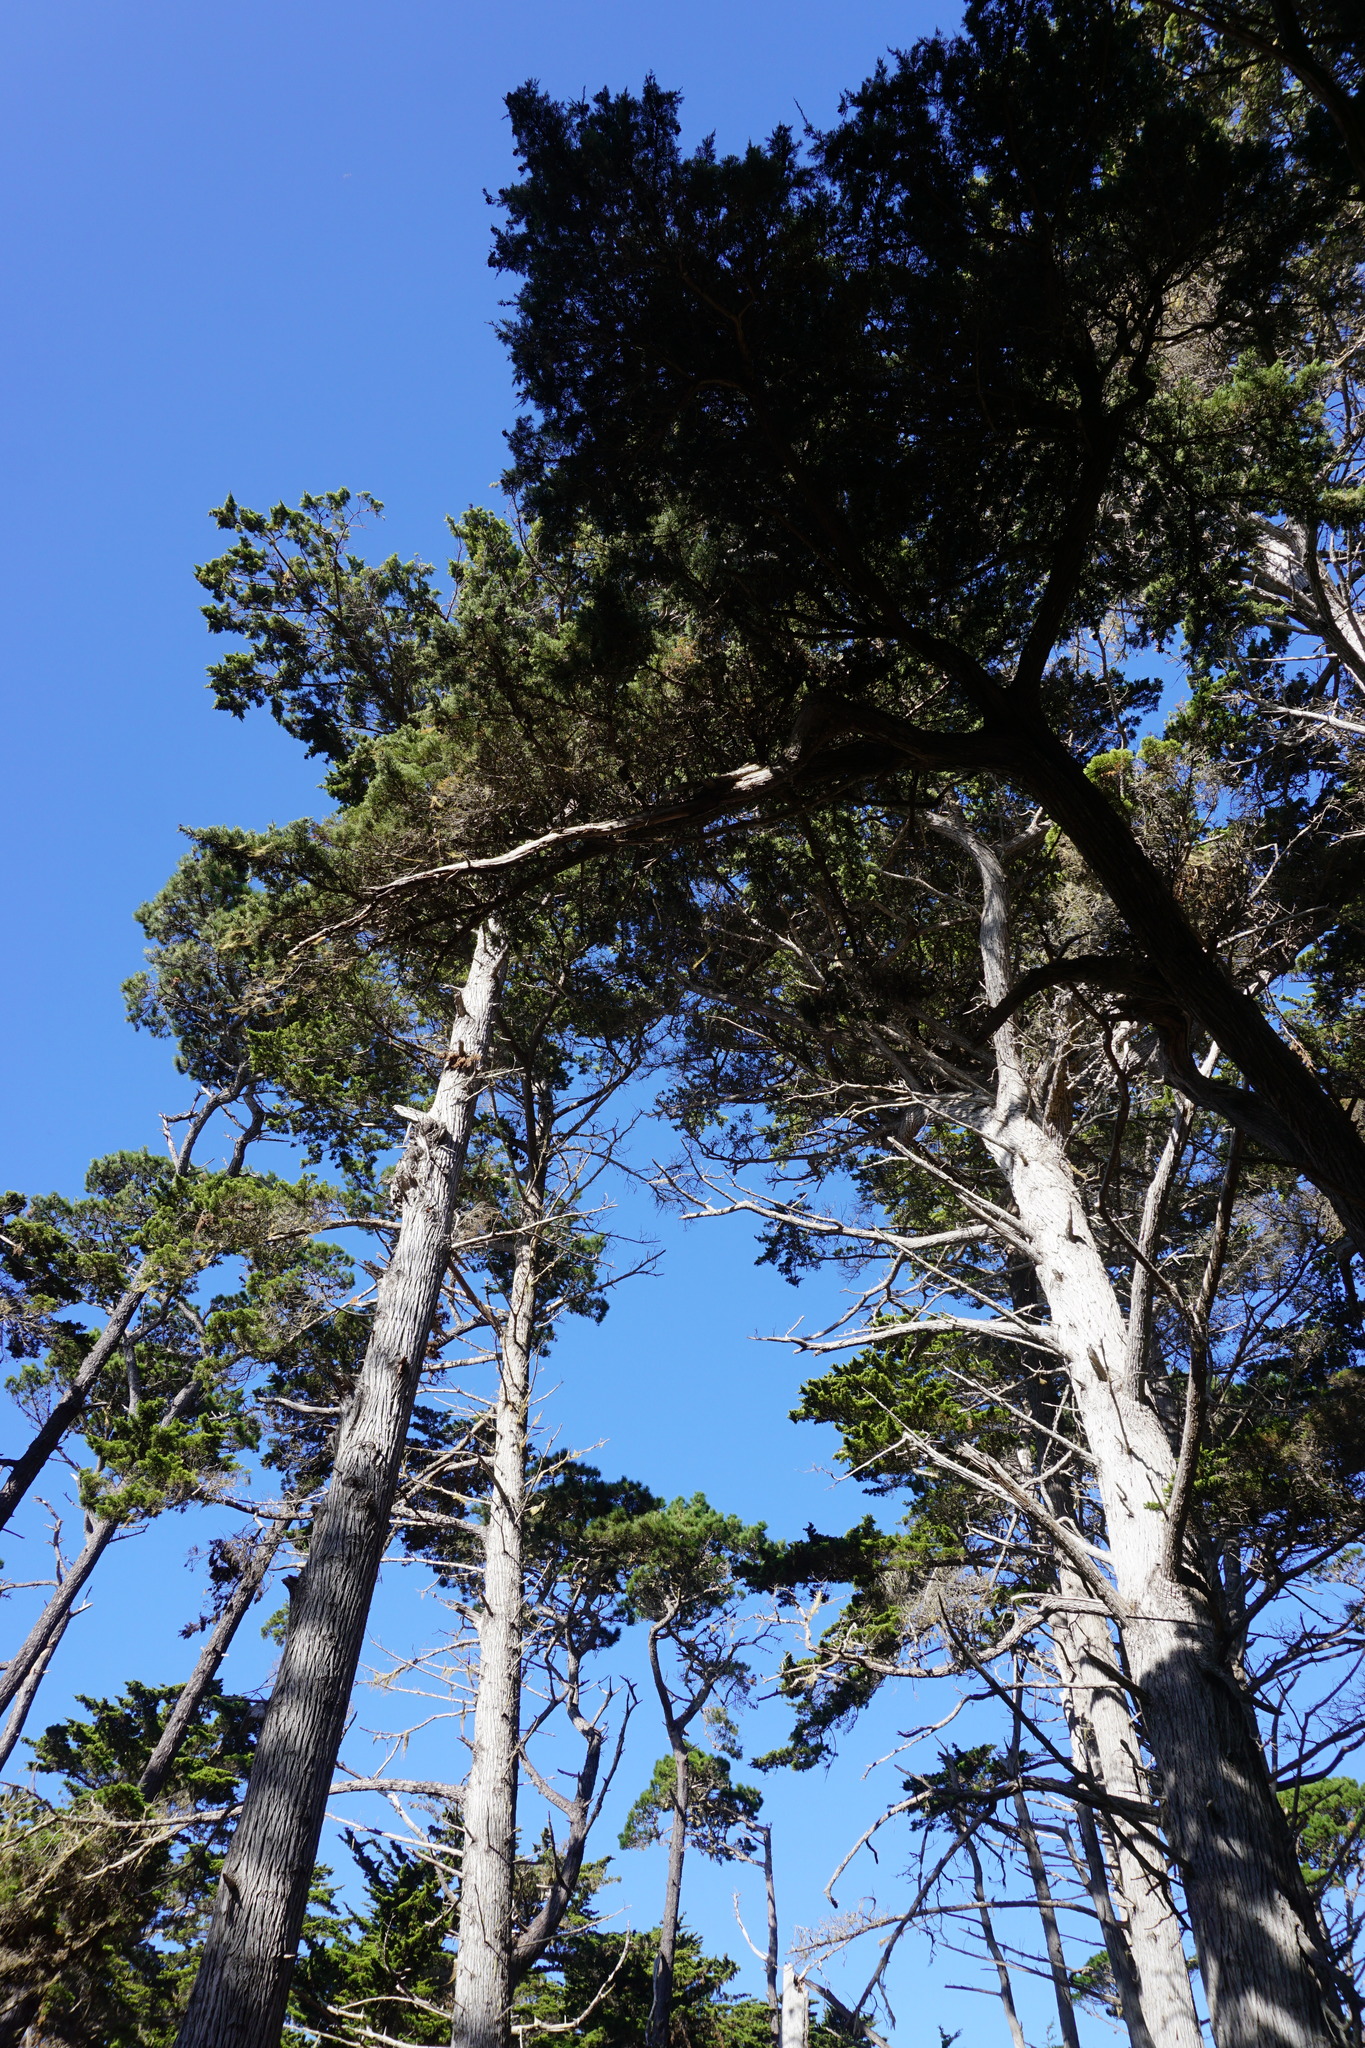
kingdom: Plantae
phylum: Tracheophyta
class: Pinopsida
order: Pinales
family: Cupressaceae
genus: Cupressus
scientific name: Cupressus macrocarpa
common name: Monterey cypress
